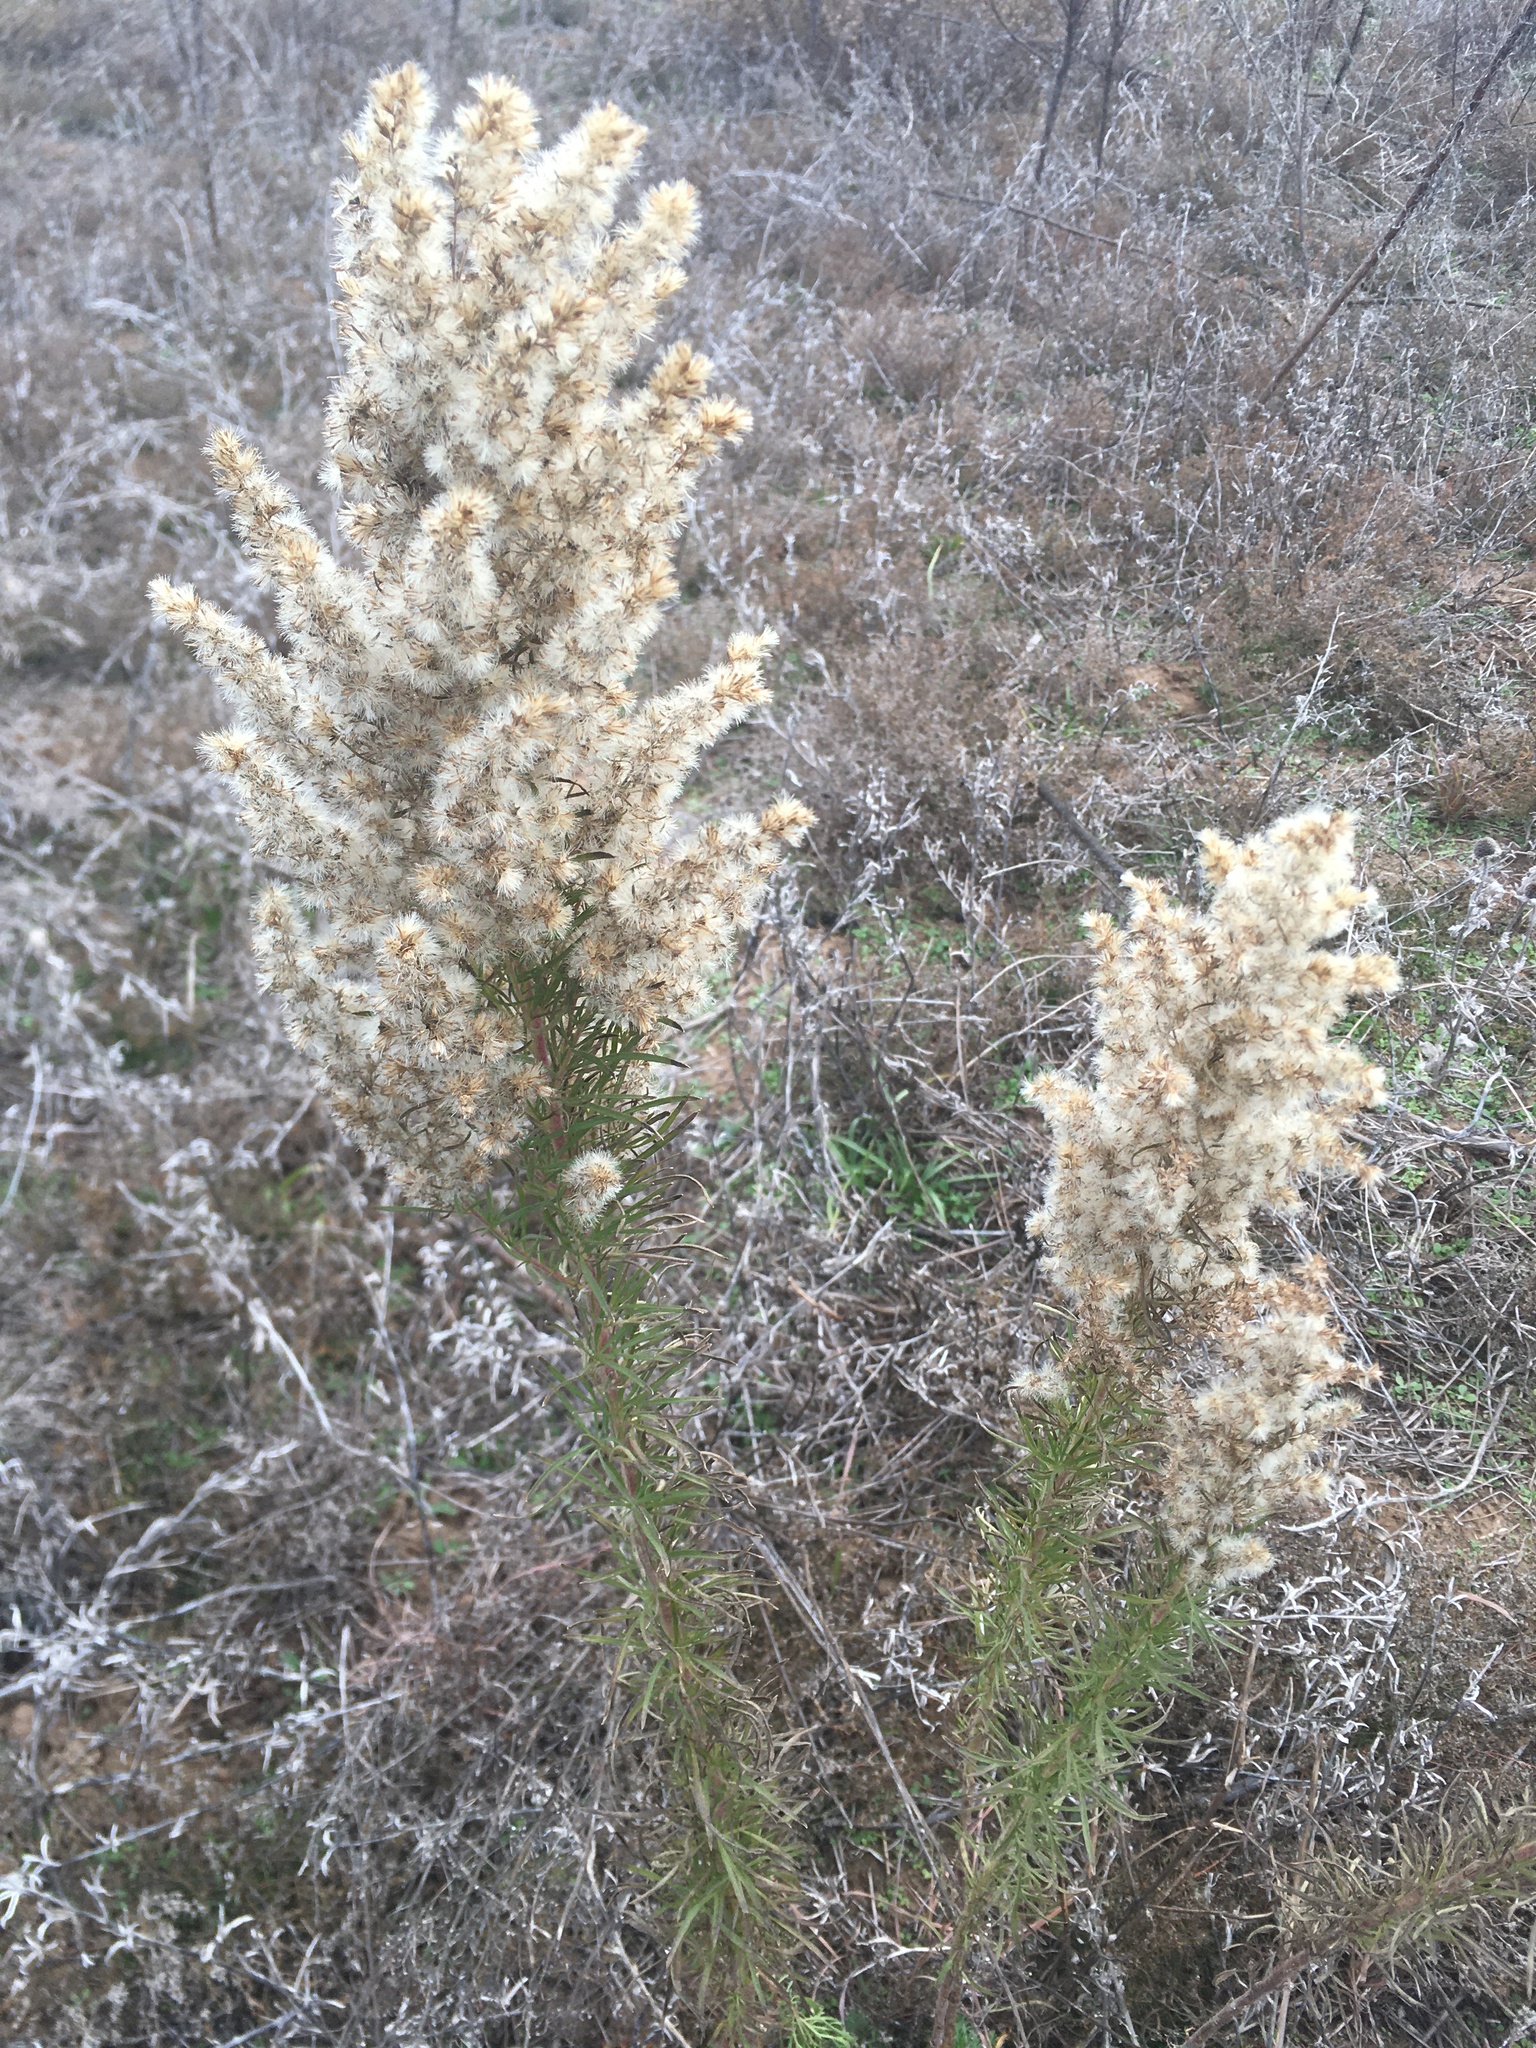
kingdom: Plantae
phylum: Tracheophyta
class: Magnoliopsida
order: Asterales
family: Asteraceae
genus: Erigeron
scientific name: Erigeron canadensis
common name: Canadian fleabane
